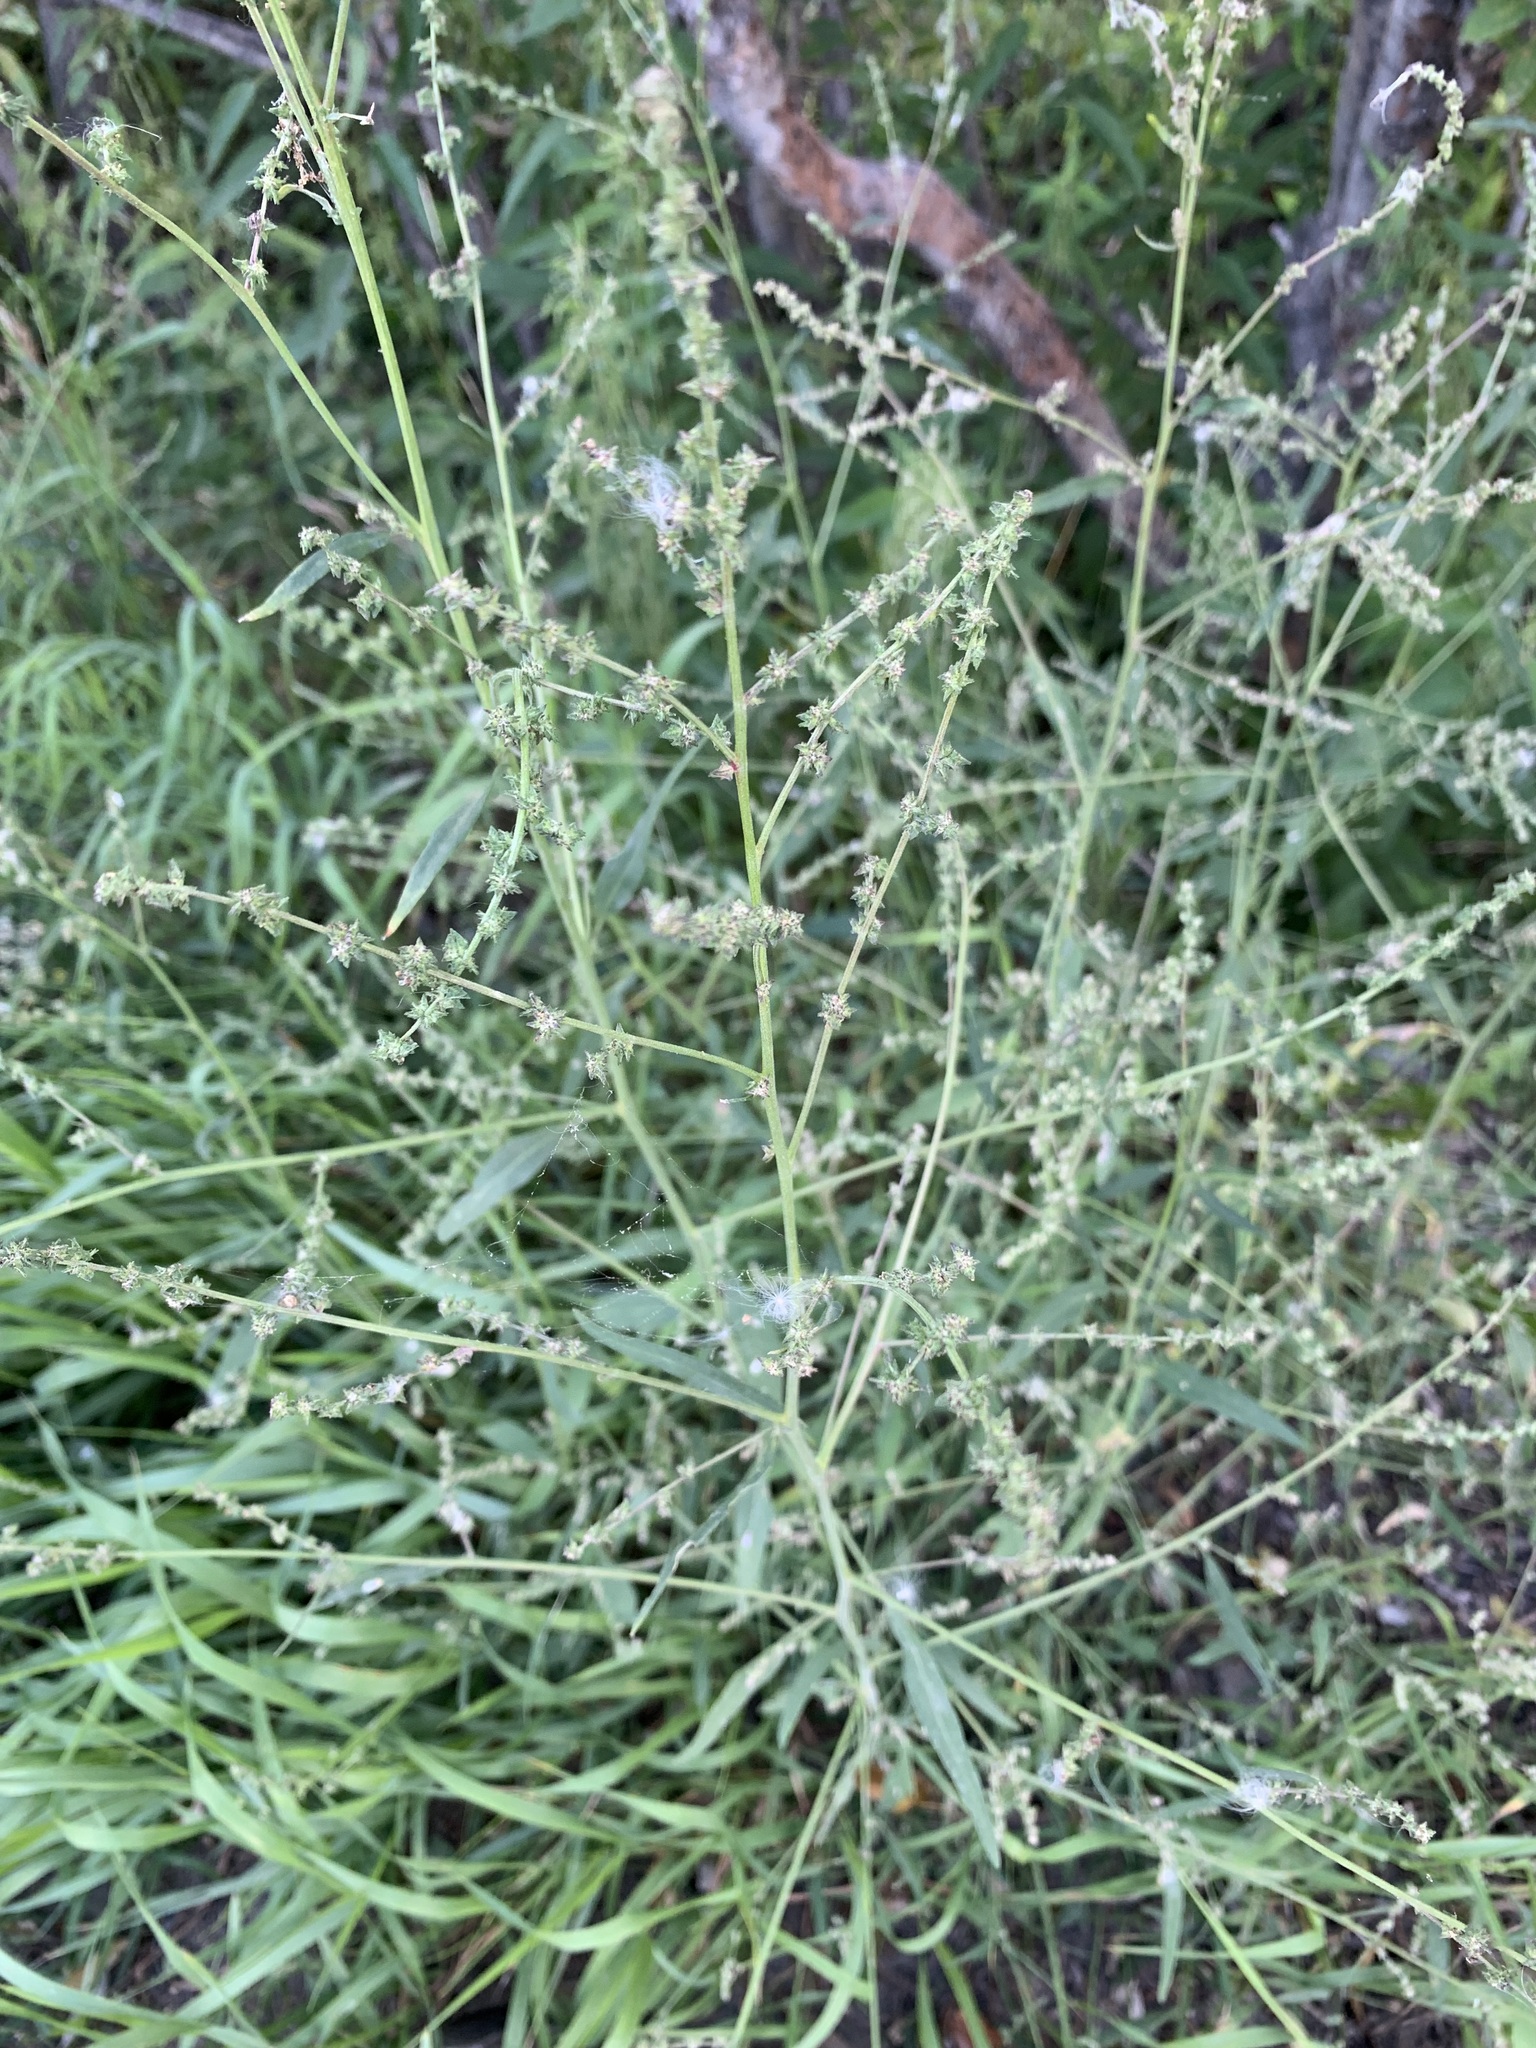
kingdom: Plantae
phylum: Tracheophyta
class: Magnoliopsida
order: Caryophyllales
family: Amaranthaceae
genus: Atriplex
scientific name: Atriplex patula
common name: Common orache
